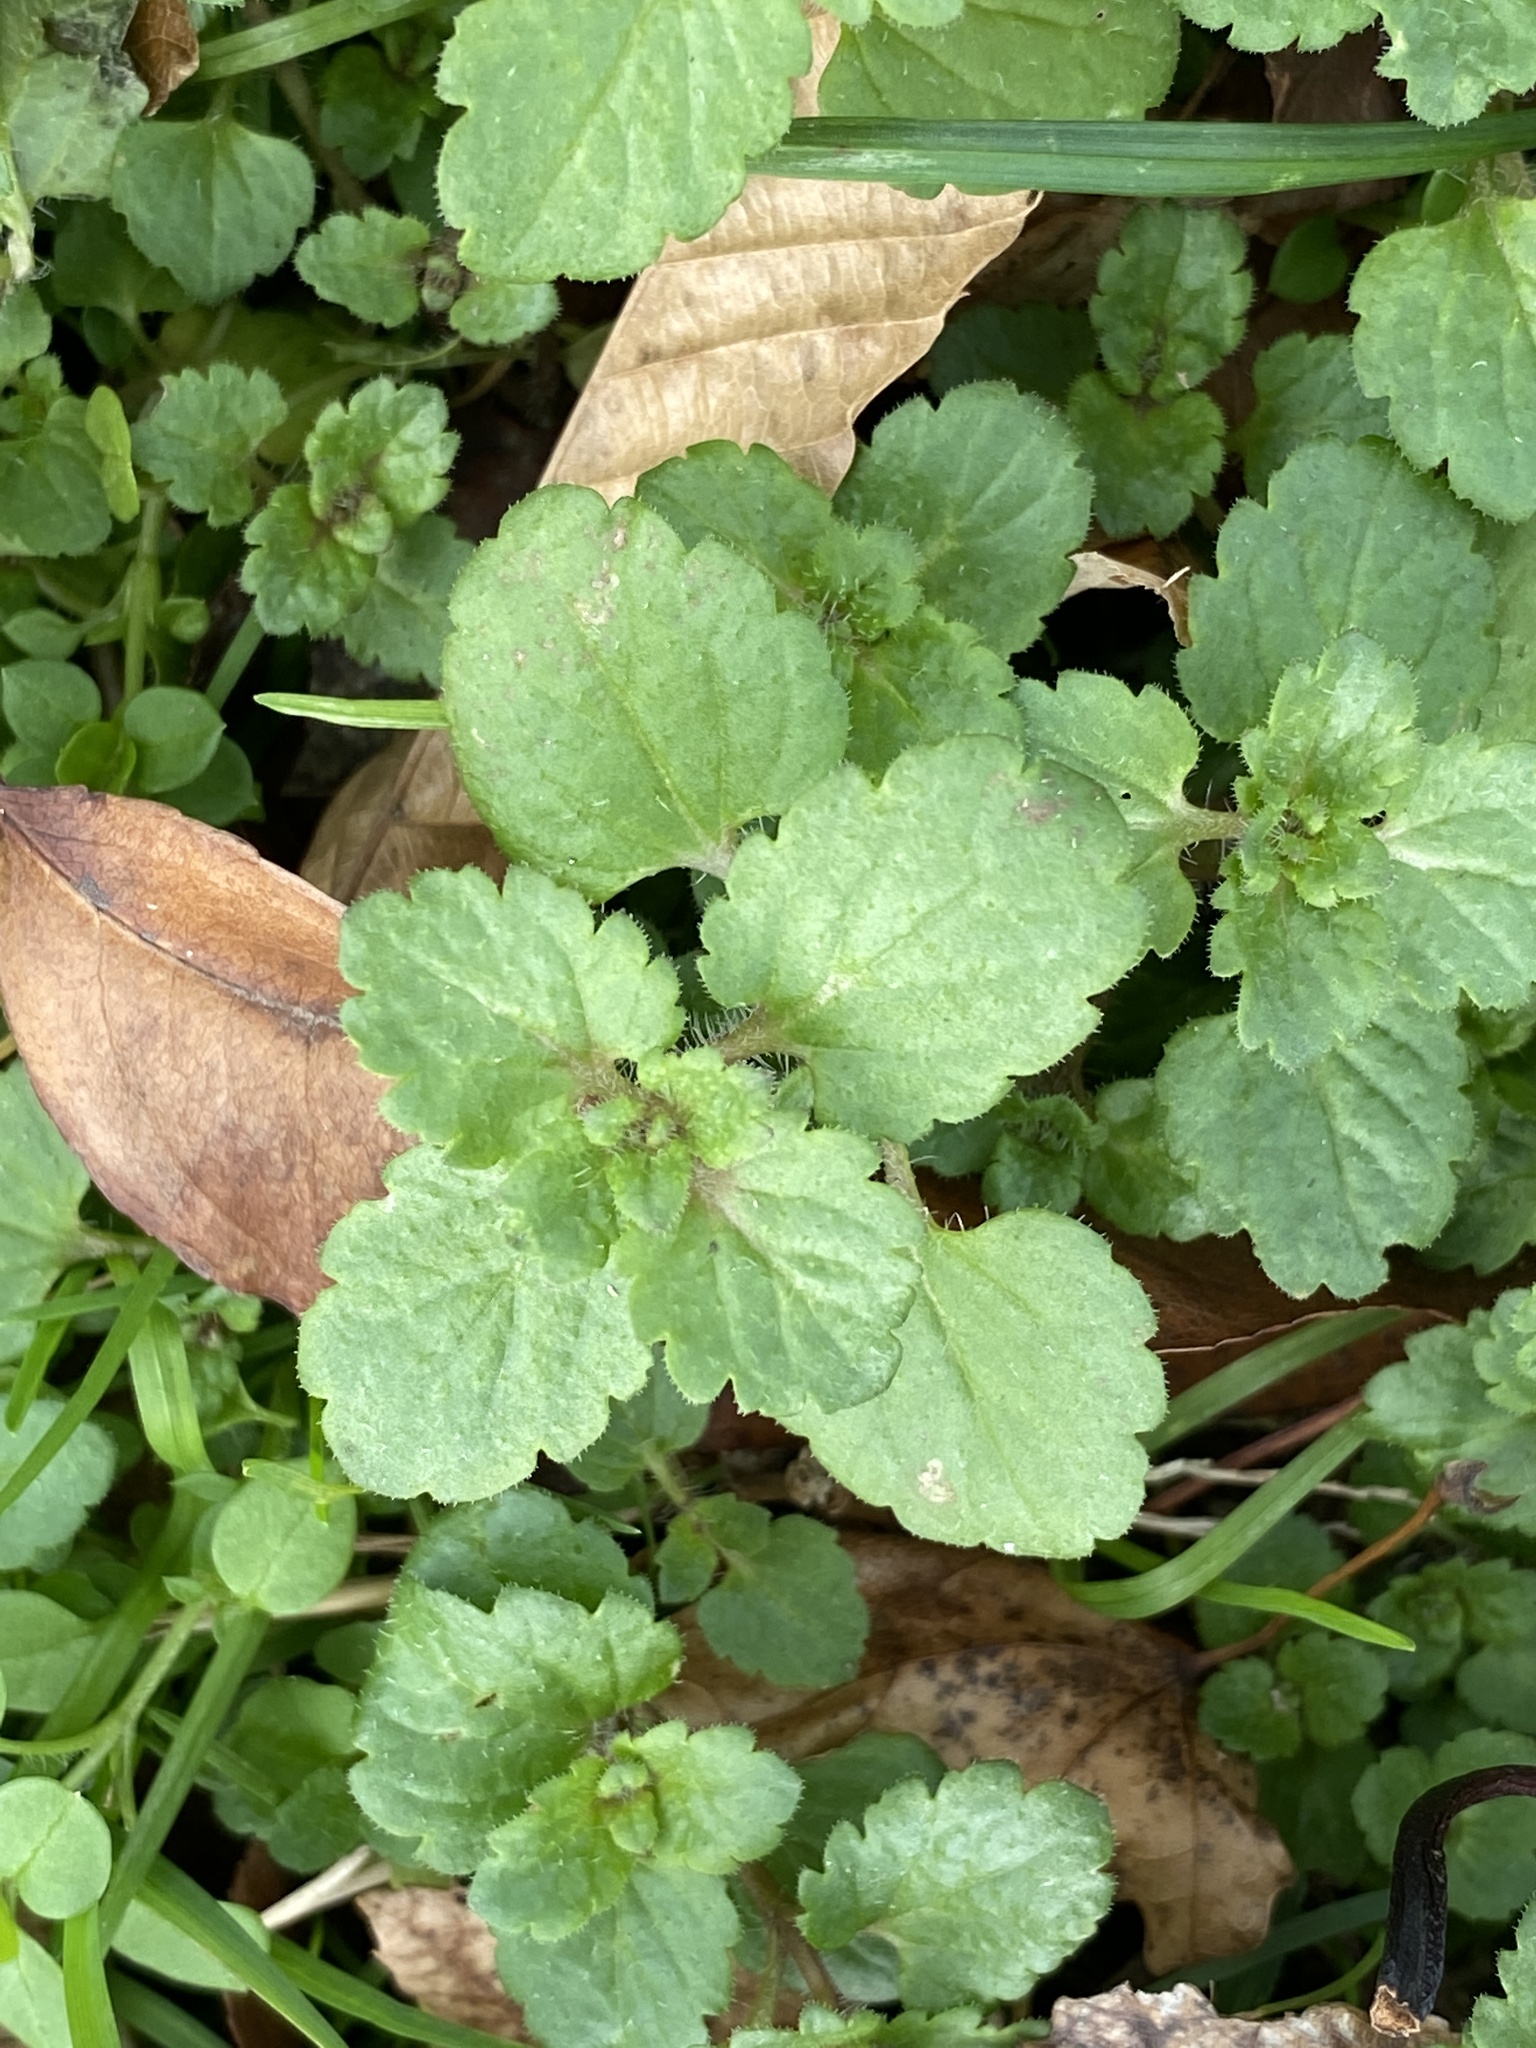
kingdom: Plantae
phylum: Tracheophyta
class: Magnoliopsida
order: Lamiales
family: Plantaginaceae
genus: Veronica
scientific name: Veronica persica
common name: Common field-speedwell
